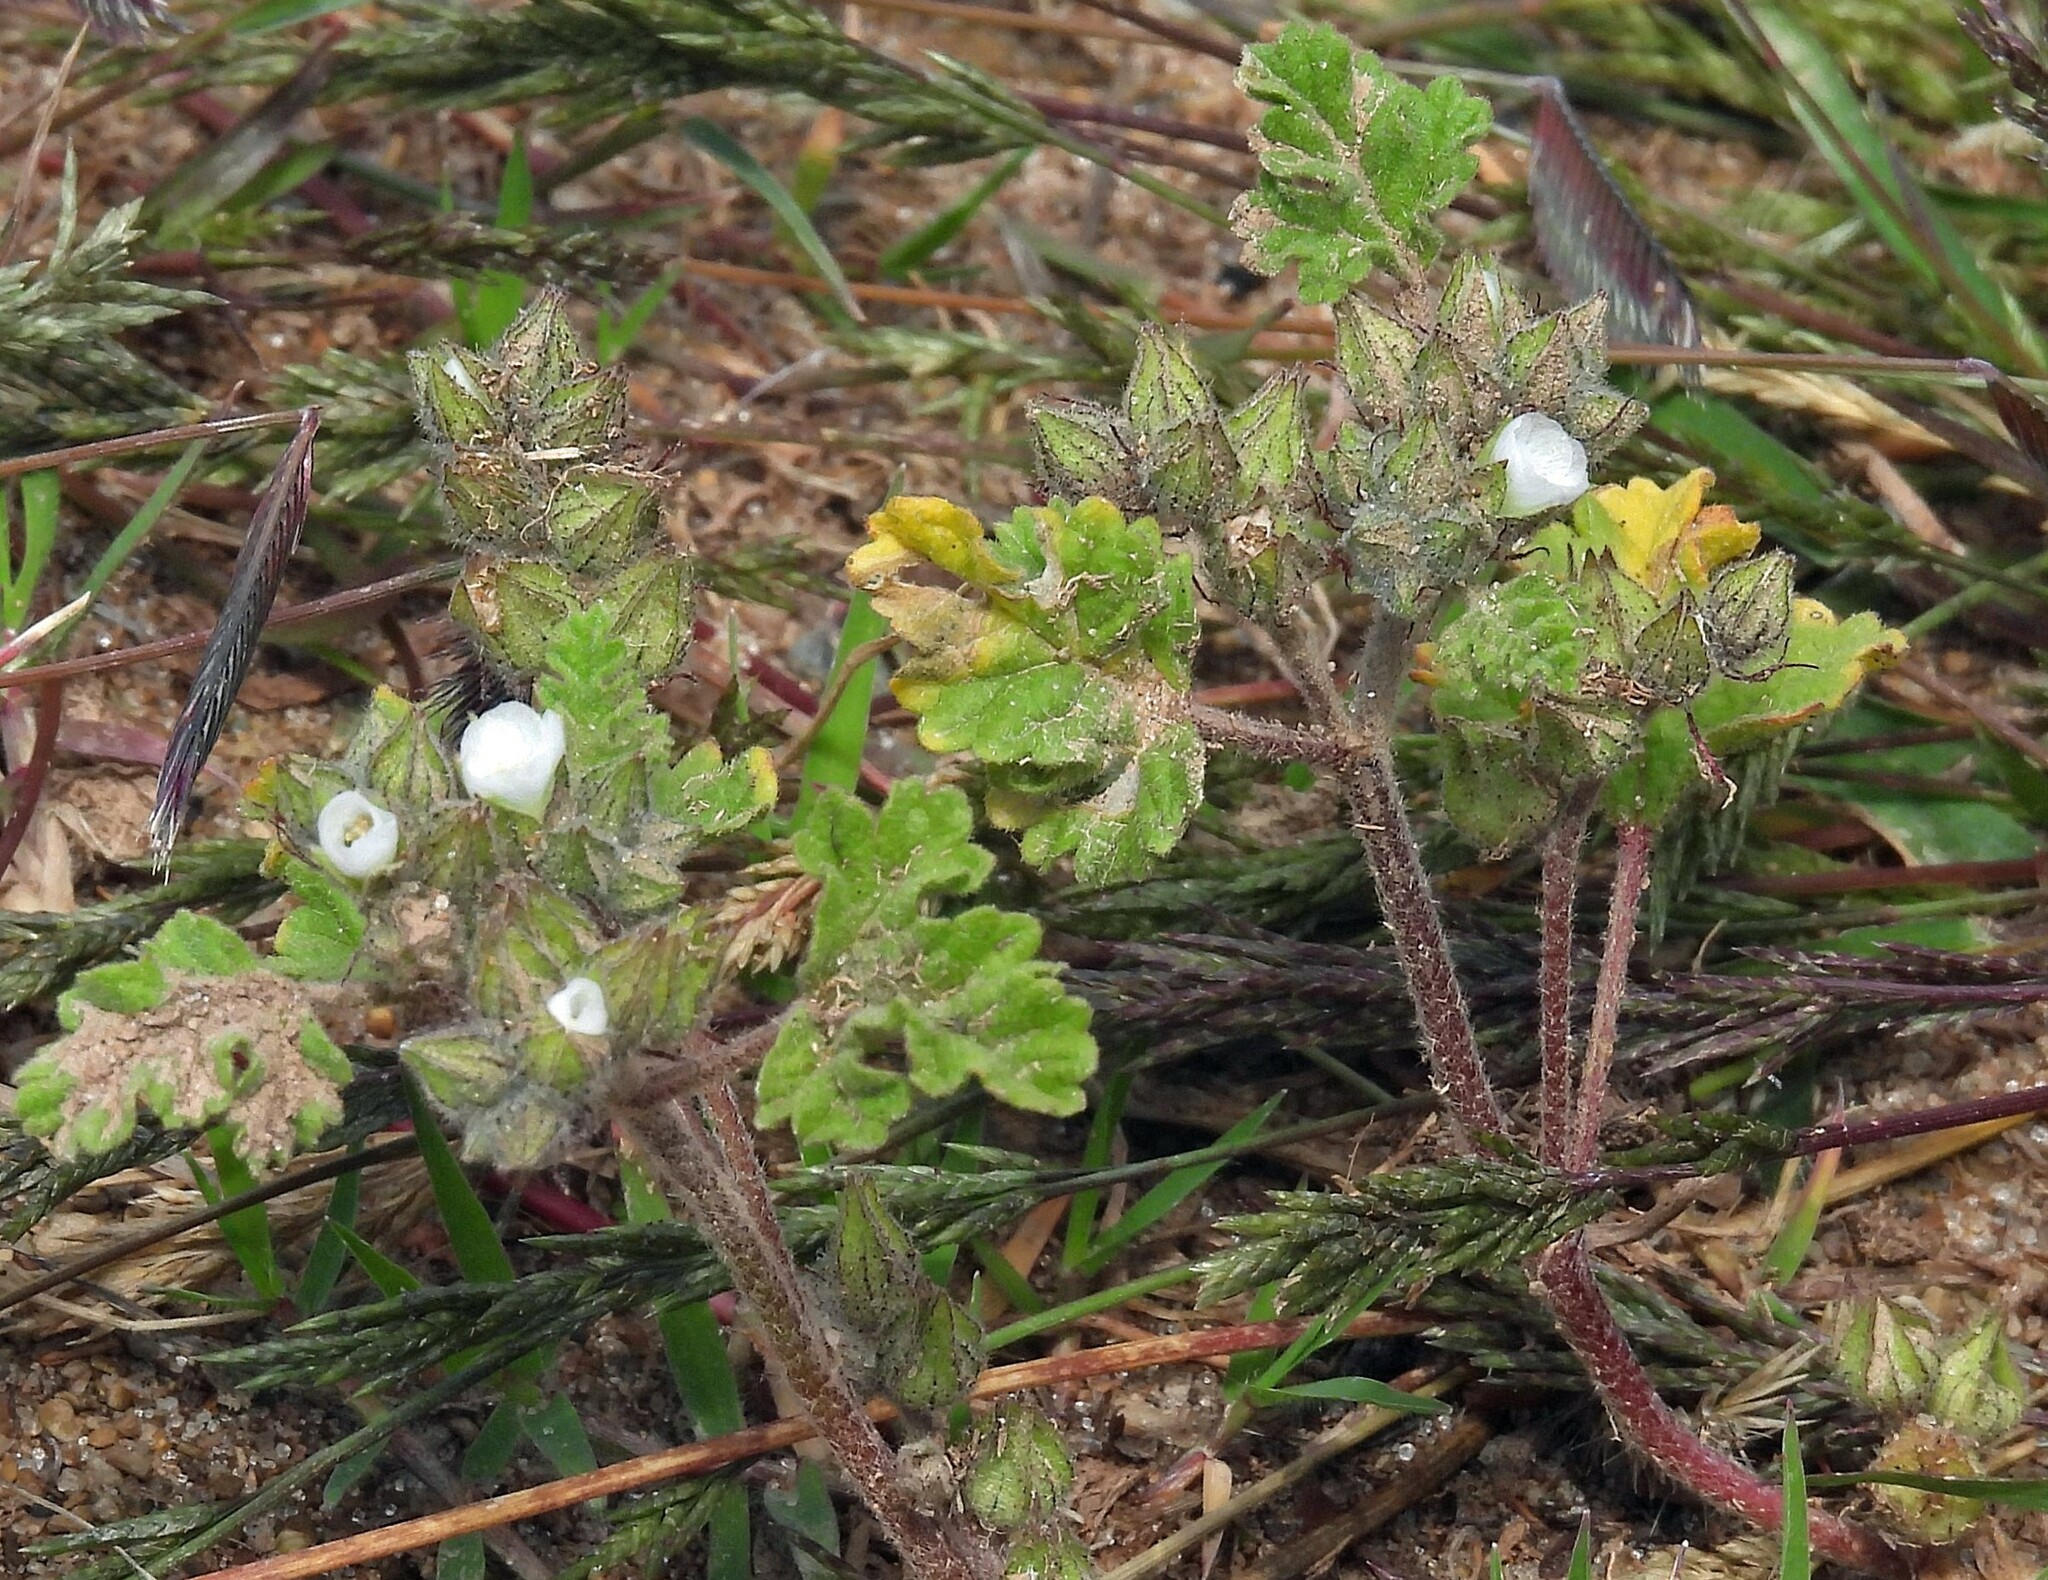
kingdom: Plantae
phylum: Tracheophyta
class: Magnoliopsida
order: Malvales
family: Malvaceae
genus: Tarasa
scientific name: Tarasa tenella
